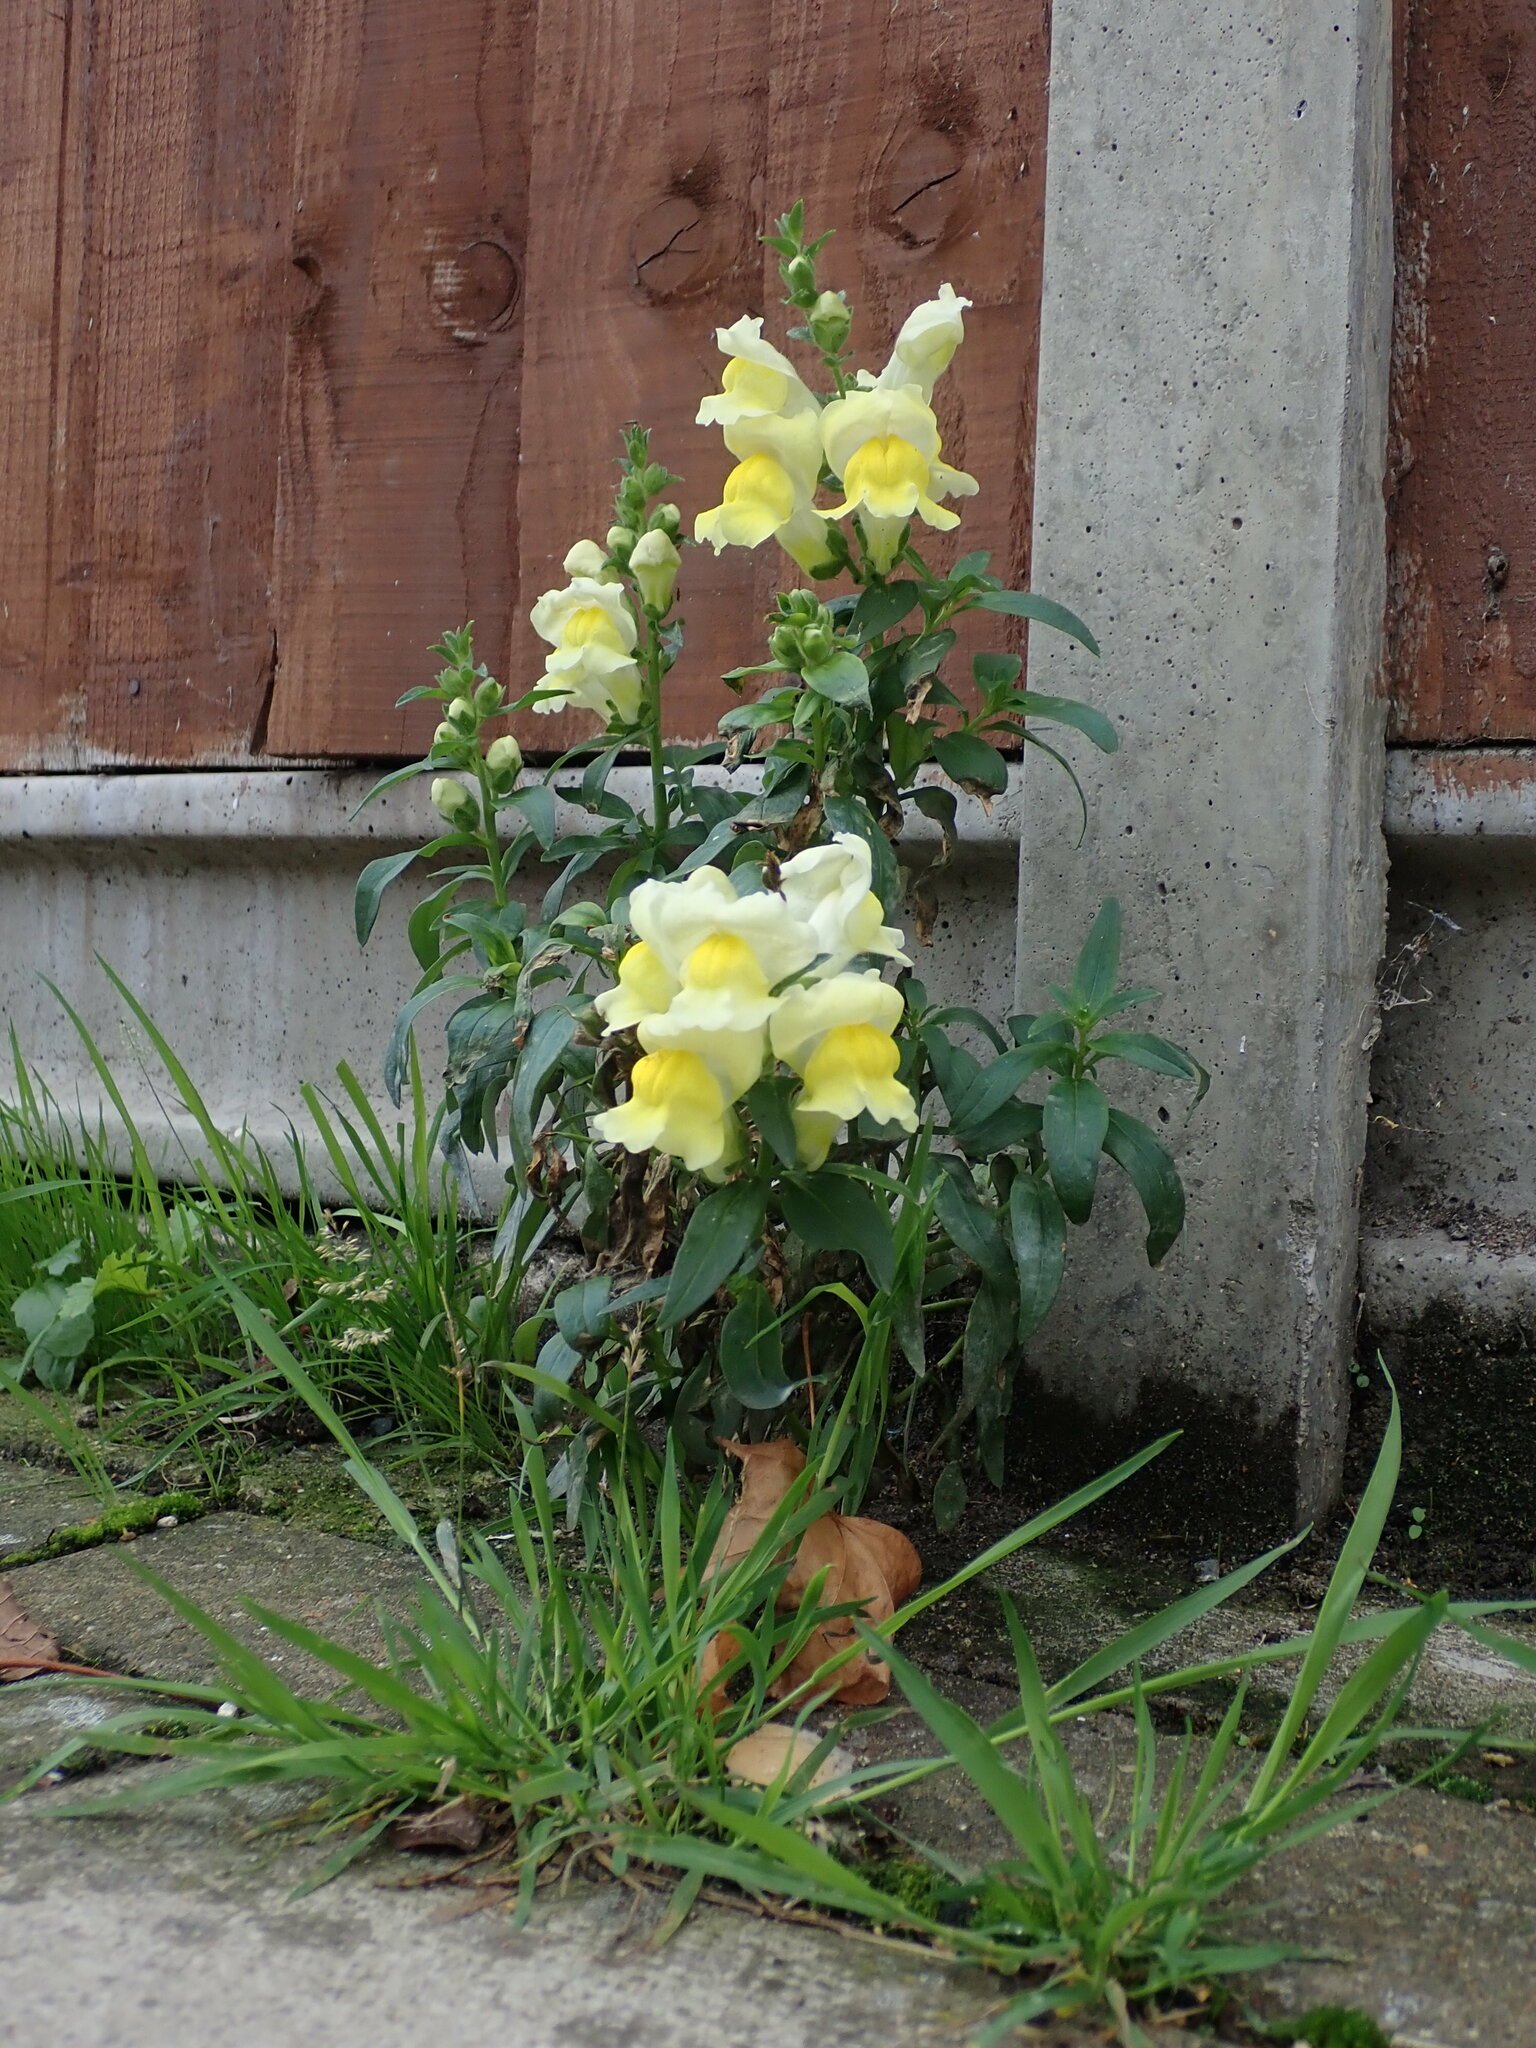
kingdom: Plantae
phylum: Tracheophyta
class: Magnoliopsida
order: Lamiales
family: Plantaginaceae
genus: Antirrhinum
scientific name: Antirrhinum majus
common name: Snapdragon
